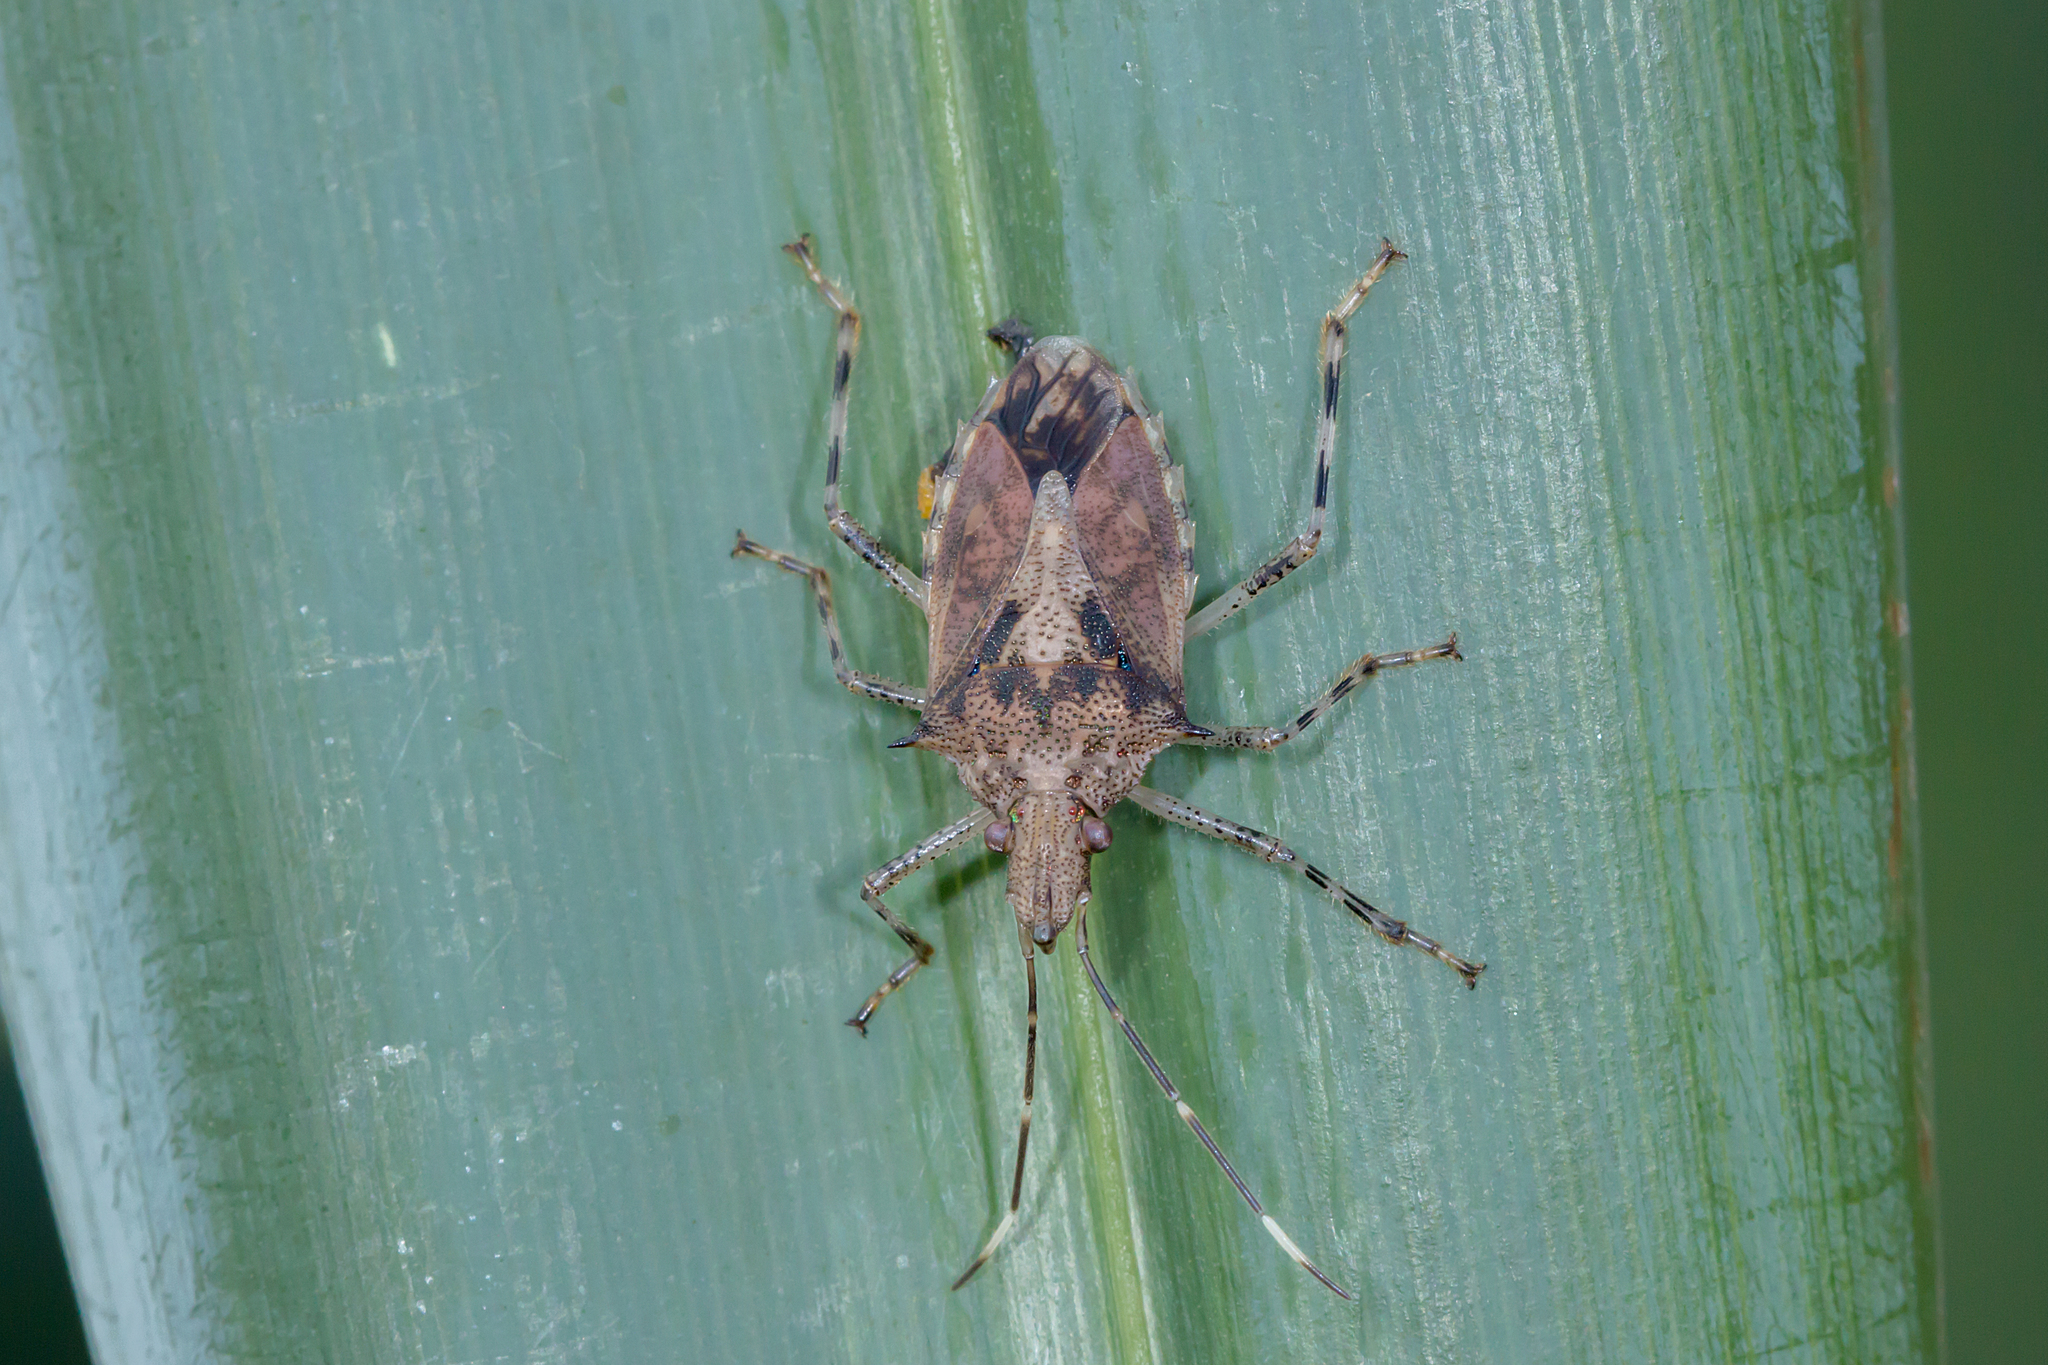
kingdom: Animalia
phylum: Arthropoda
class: Insecta
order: Hemiptera
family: Pentatomidae
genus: Bromocoris
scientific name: Bromocoris
